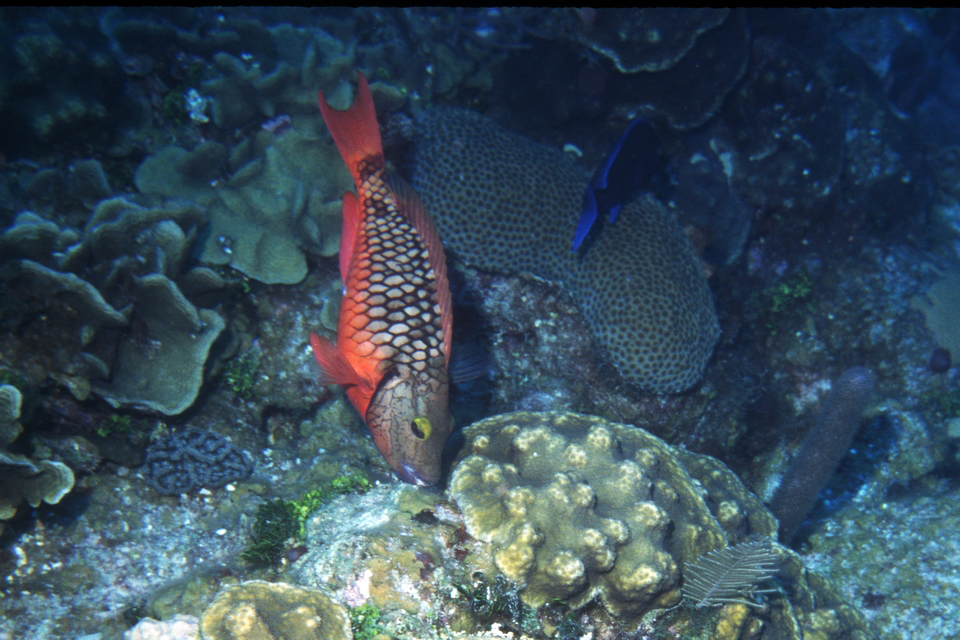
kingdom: Animalia
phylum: Chordata
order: Perciformes
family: Scaridae
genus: Sparisoma
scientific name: Sparisoma viride
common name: Stoplight parrotfish
